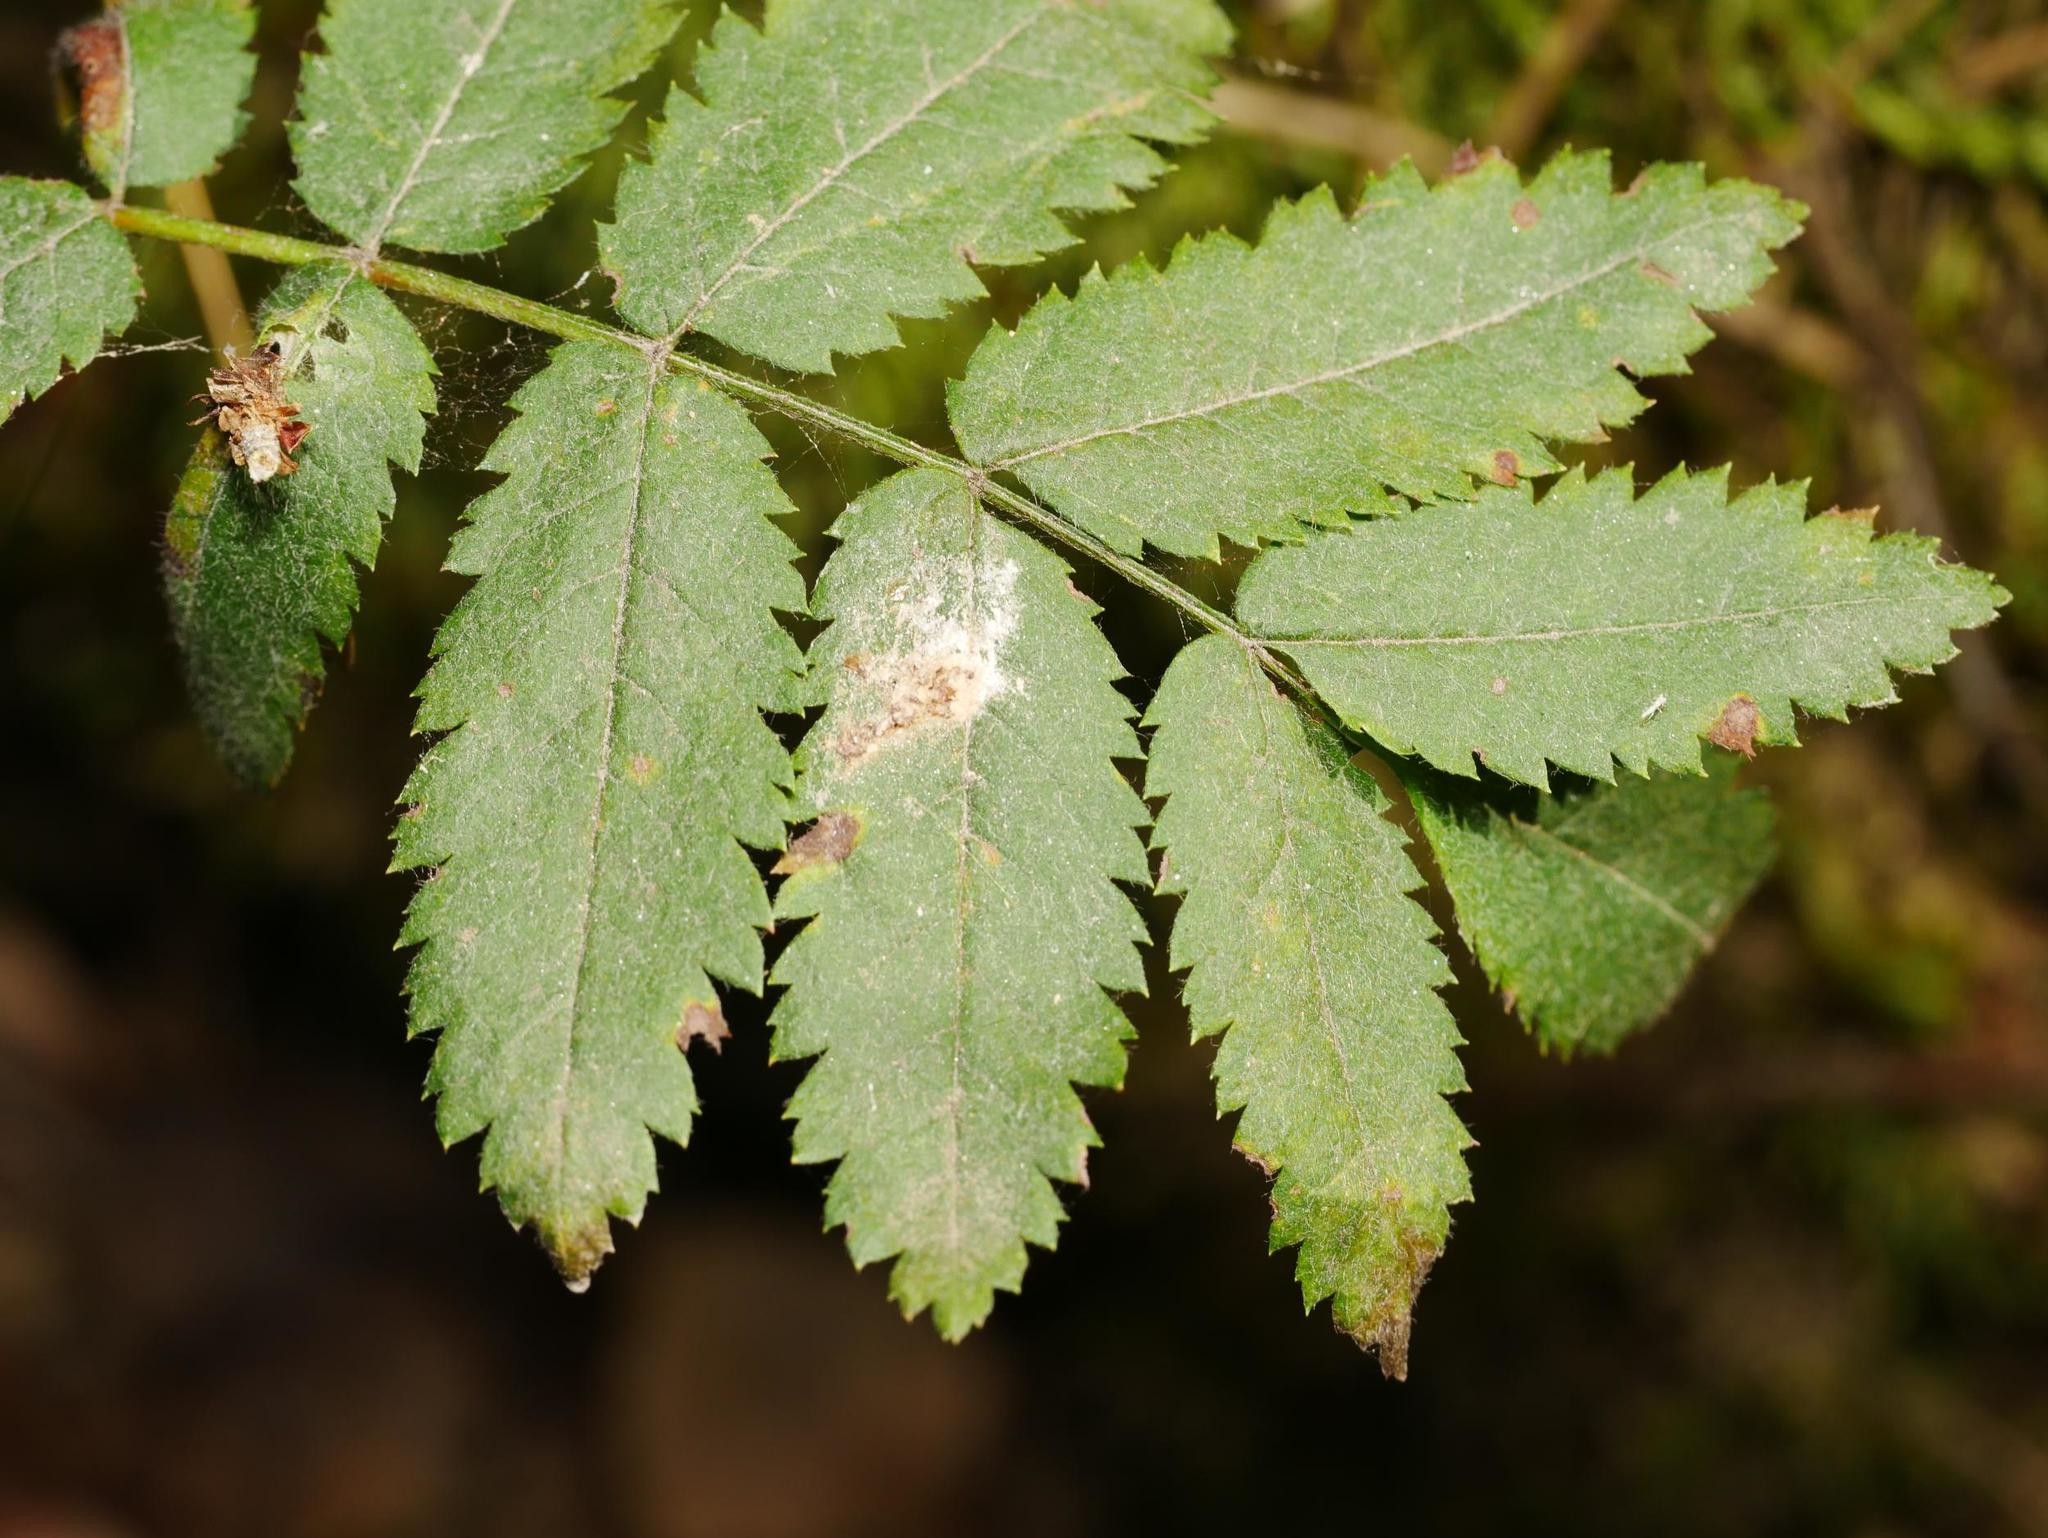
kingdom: Plantae
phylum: Tracheophyta
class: Magnoliopsida
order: Rosales
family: Rosaceae
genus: Sorbus
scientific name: Sorbus aucuparia
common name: Rowan
